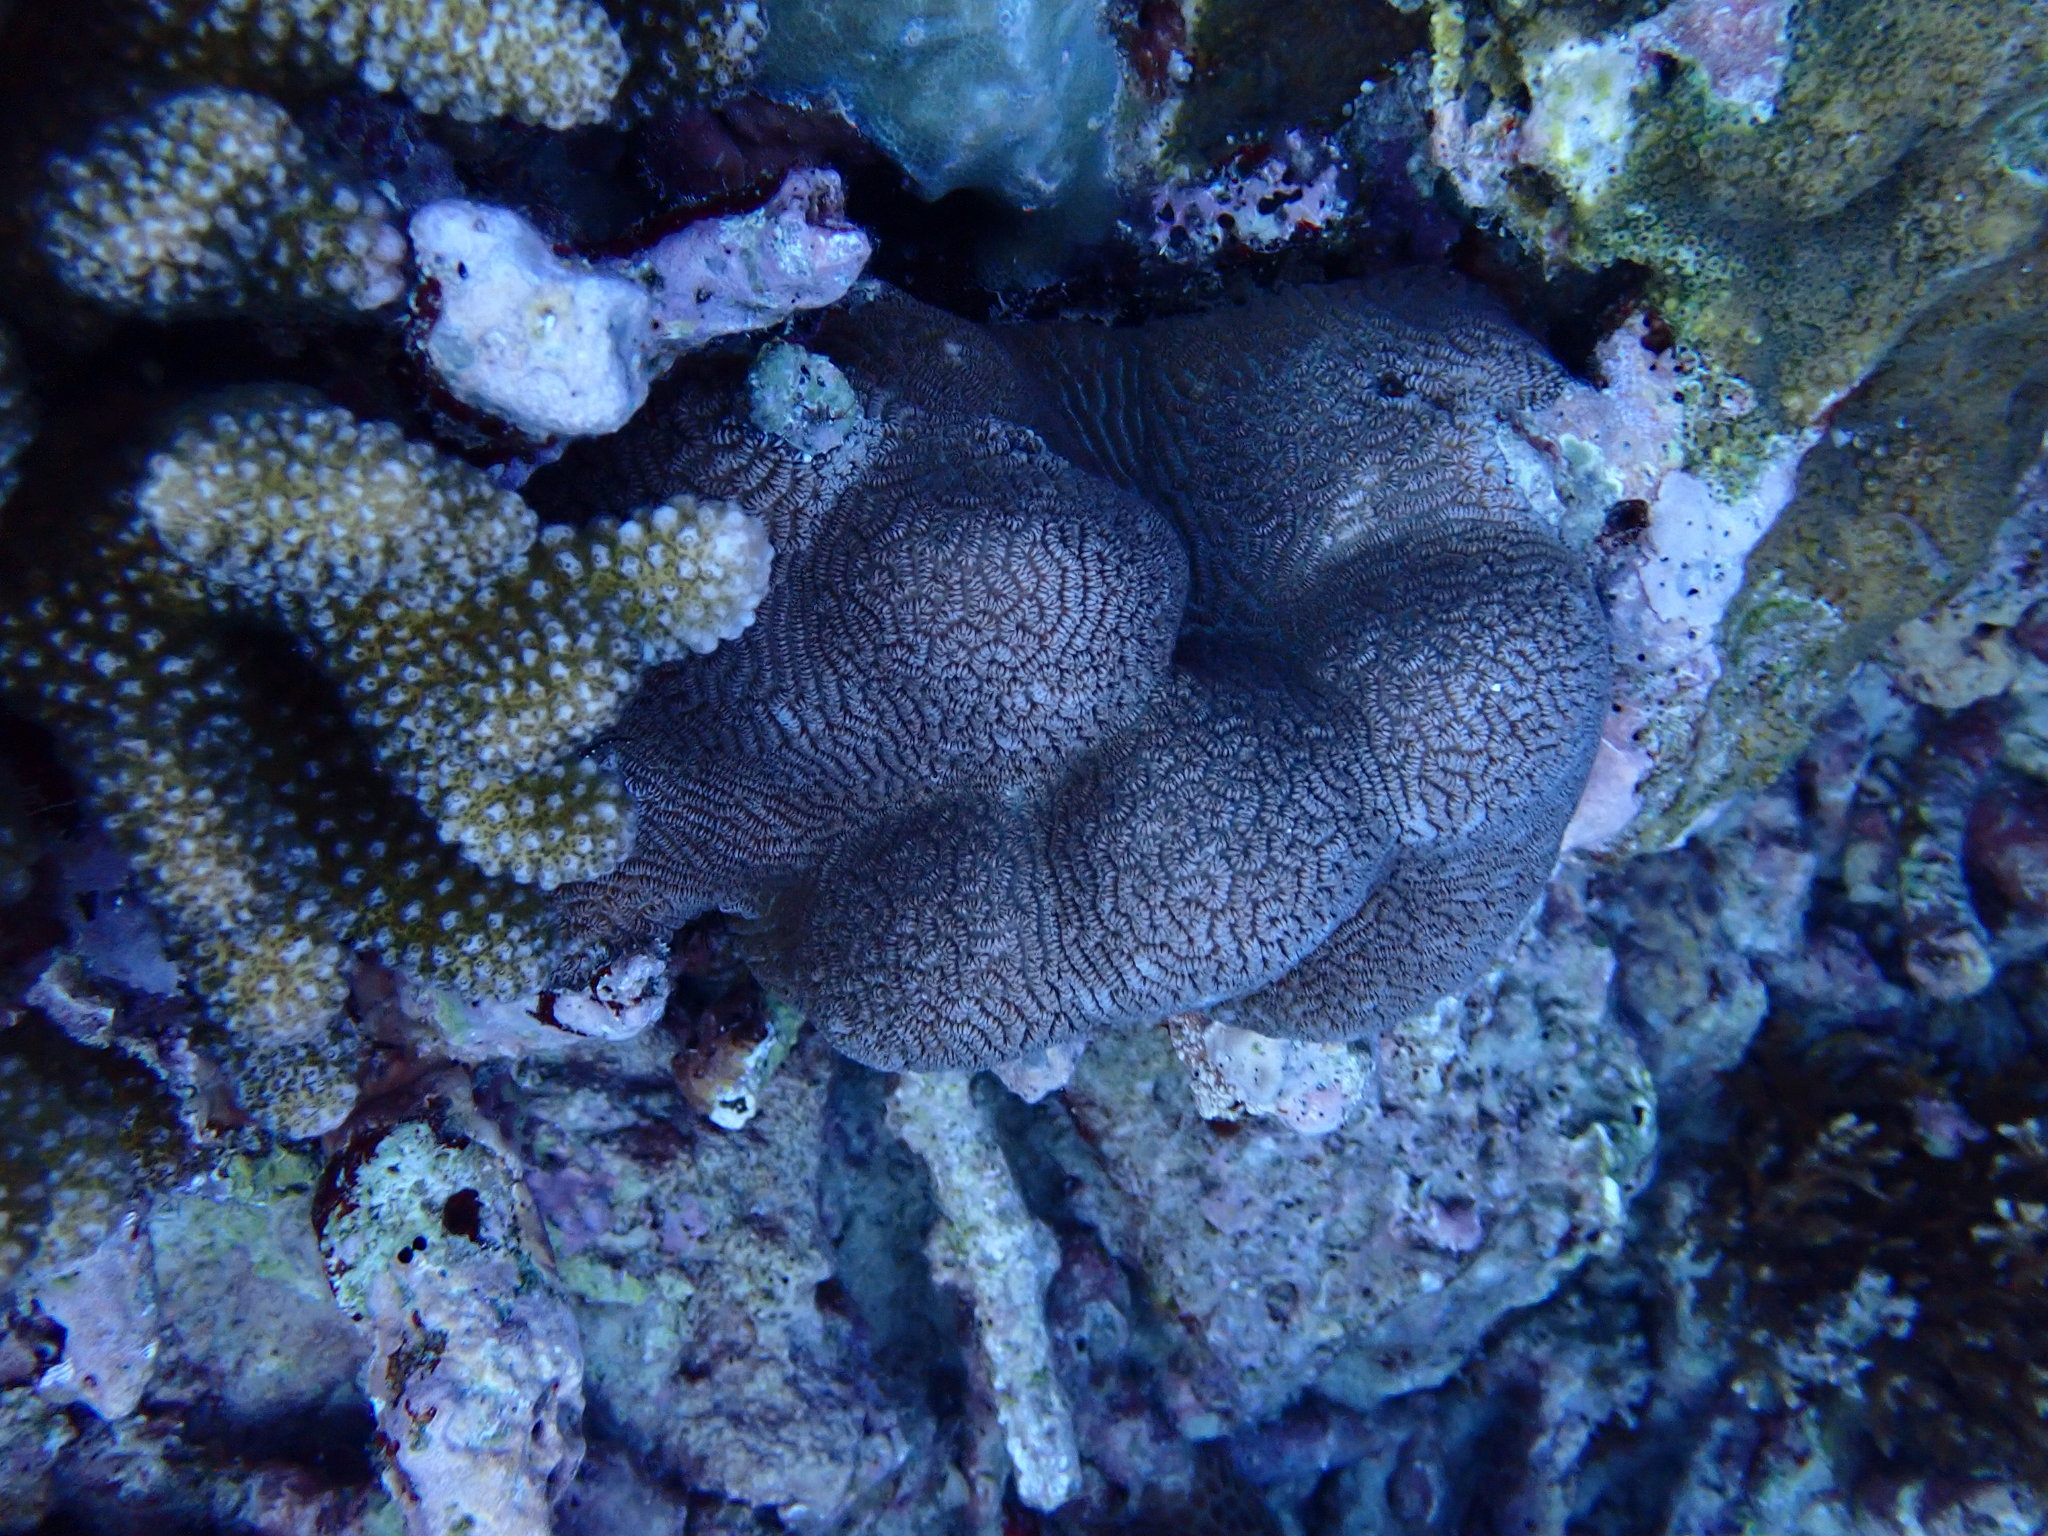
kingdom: Animalia
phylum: Cnidaria
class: Anthozoa
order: Scleractinia
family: Merulinidae
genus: Leptoria
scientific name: Leptoria phrygia
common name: Least valley coral
